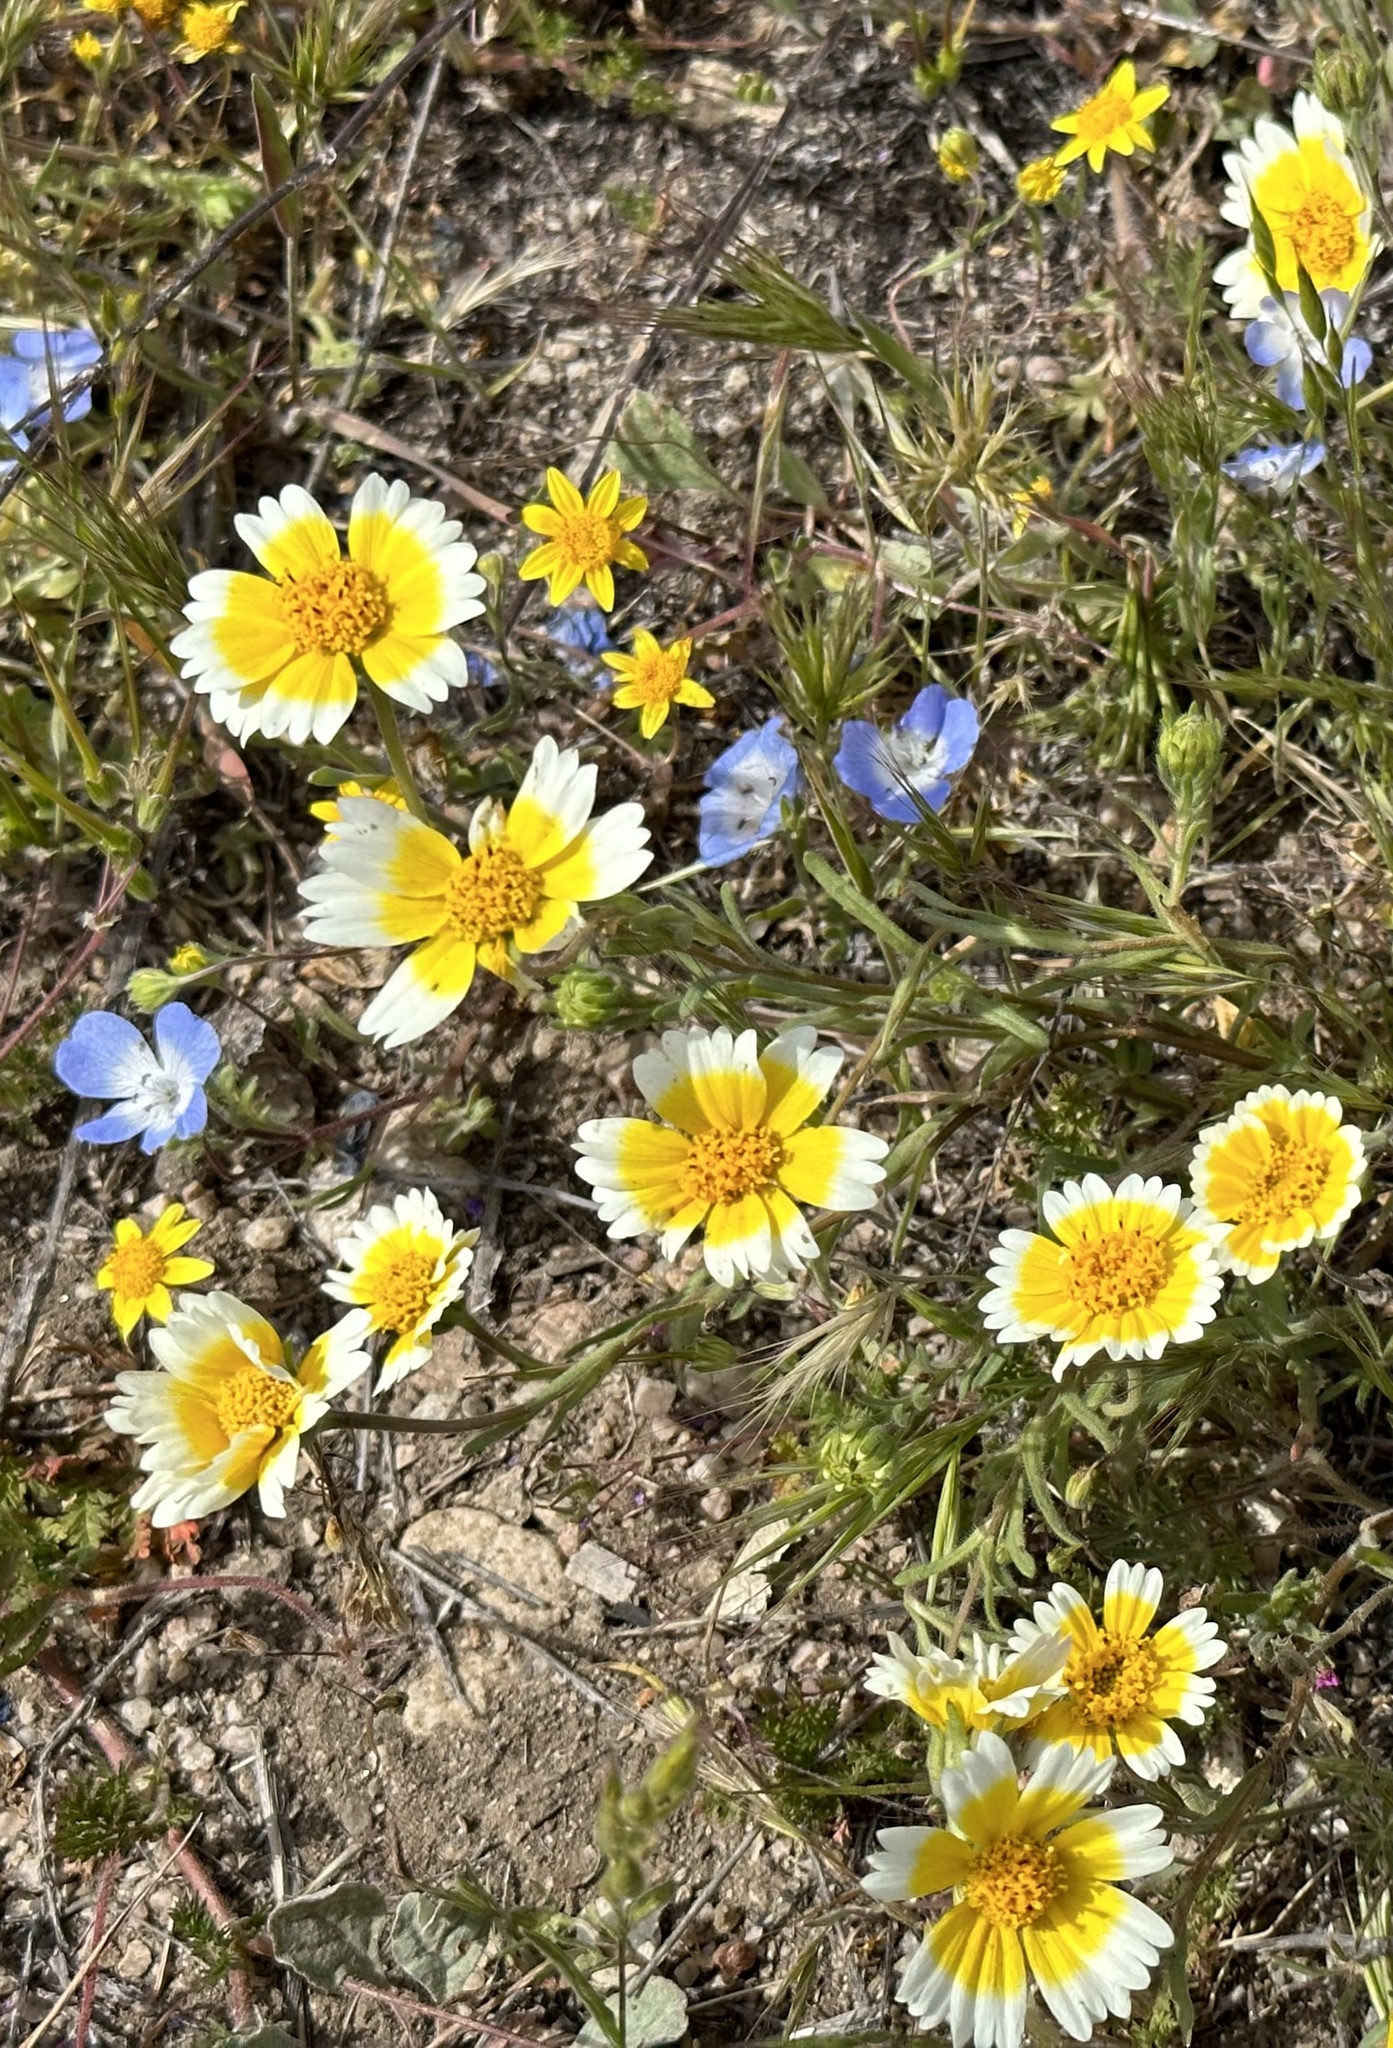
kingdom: Plantae
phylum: Tracheophyta
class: Magnoliopsida
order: Asterales
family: Asteraceae
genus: Layia
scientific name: Layia platyglossa
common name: Tidy-tips
